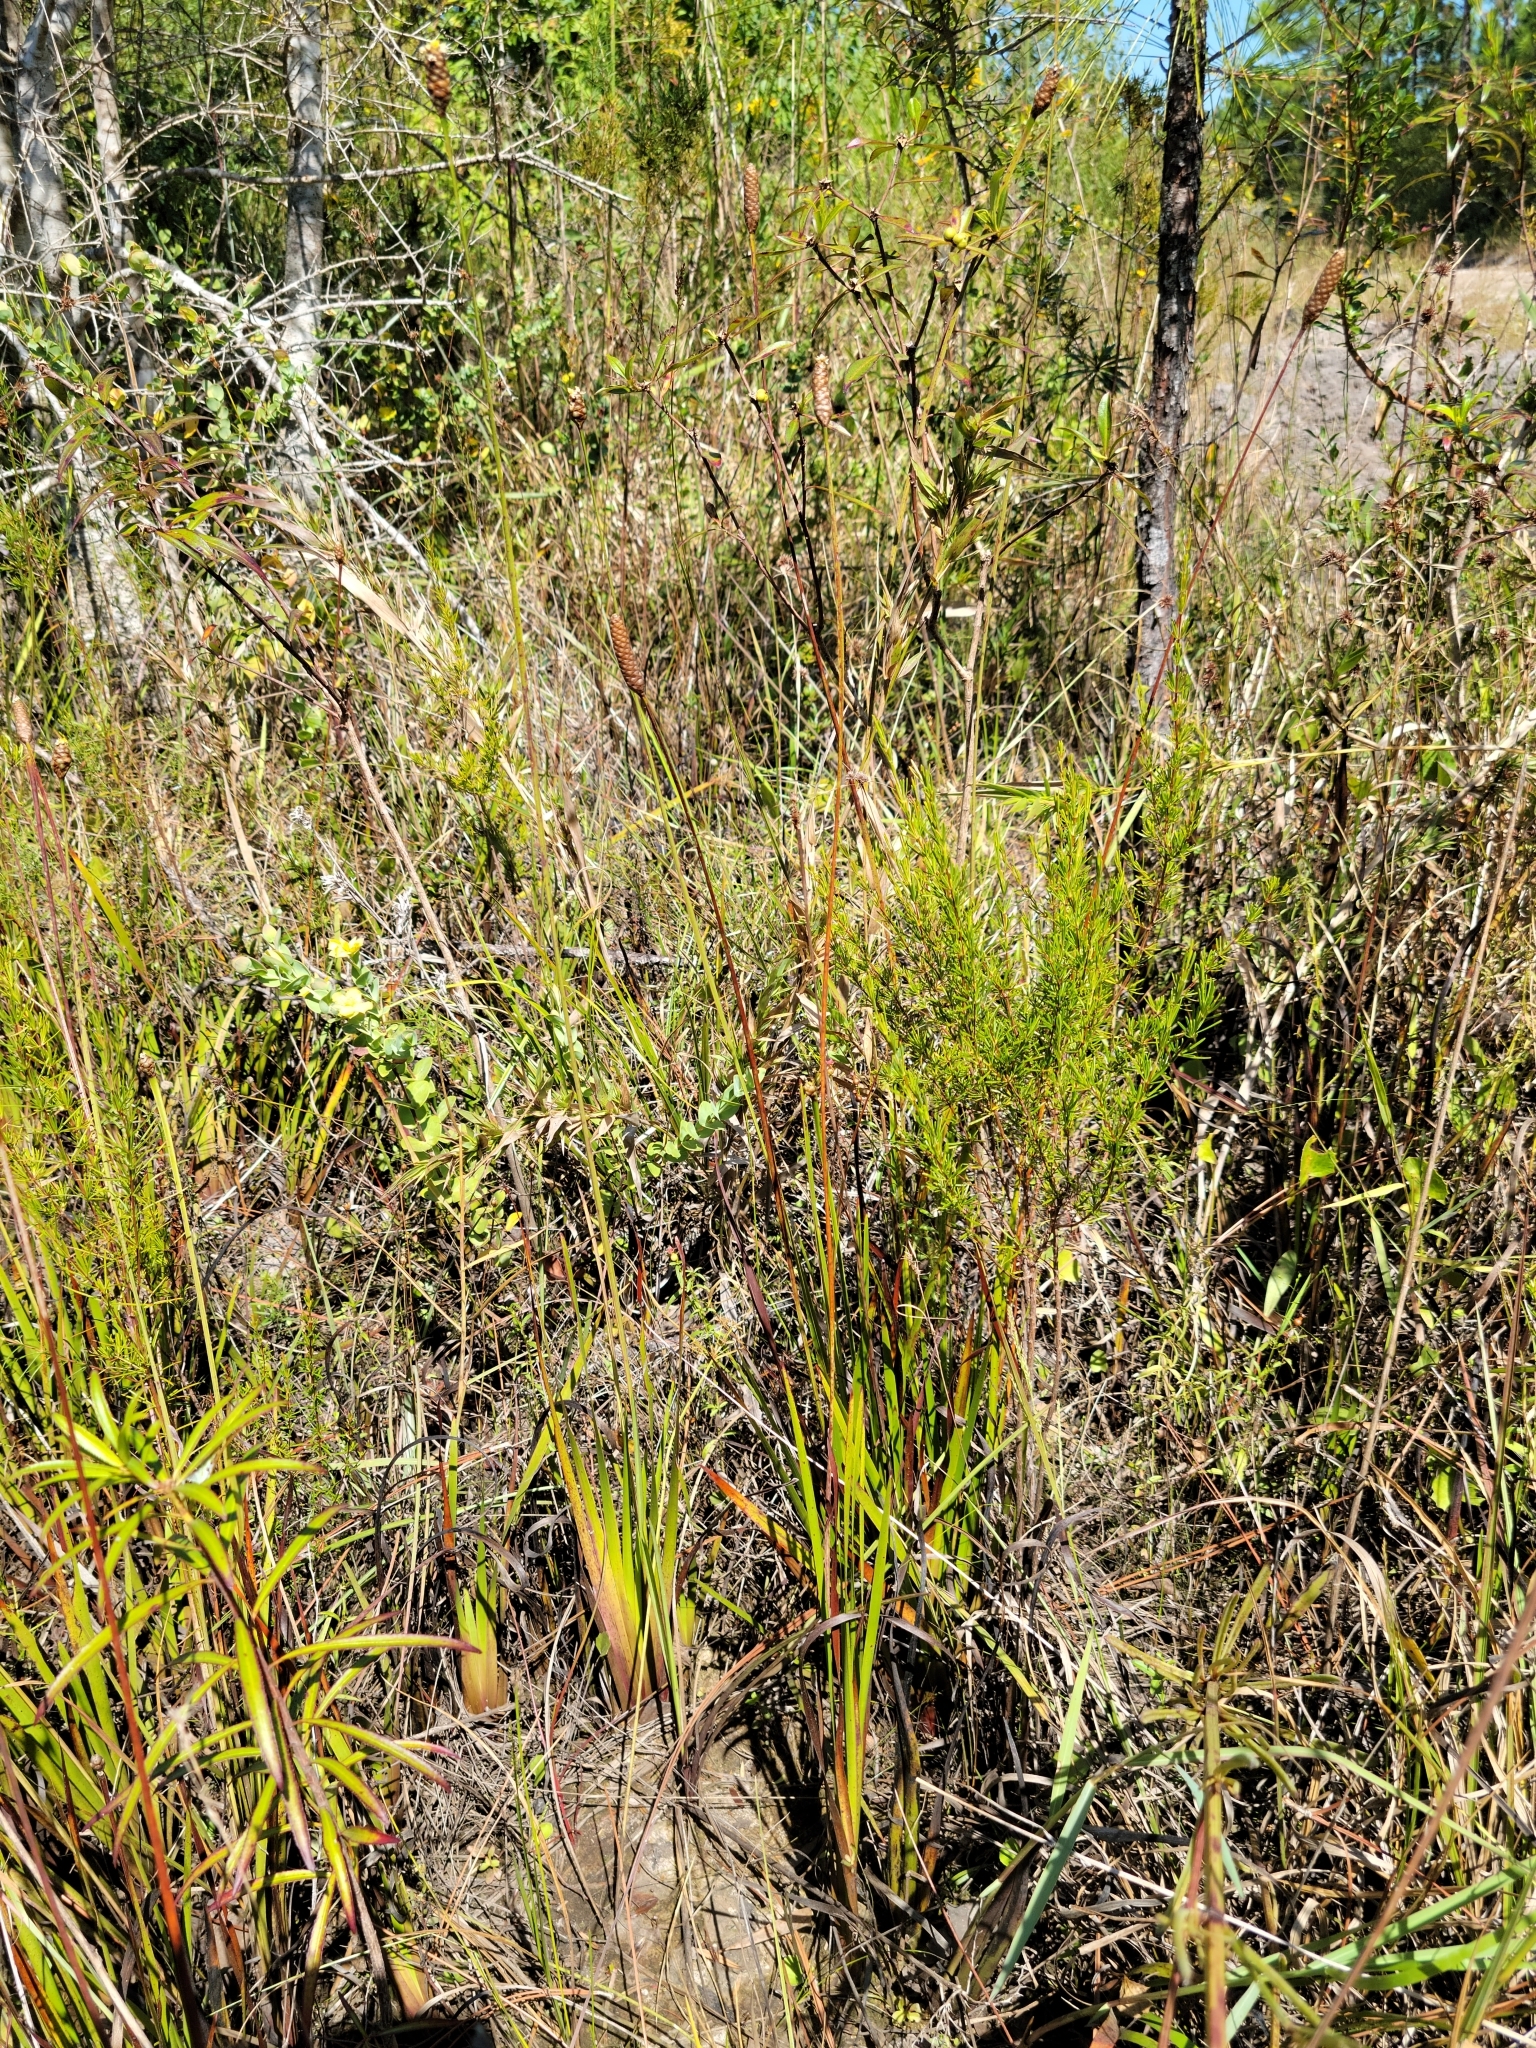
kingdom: Plantae
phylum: Tracheophyta
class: Liliopsida
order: Poales
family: Xyridaceae
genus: Xyris
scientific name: Xyris stricta
